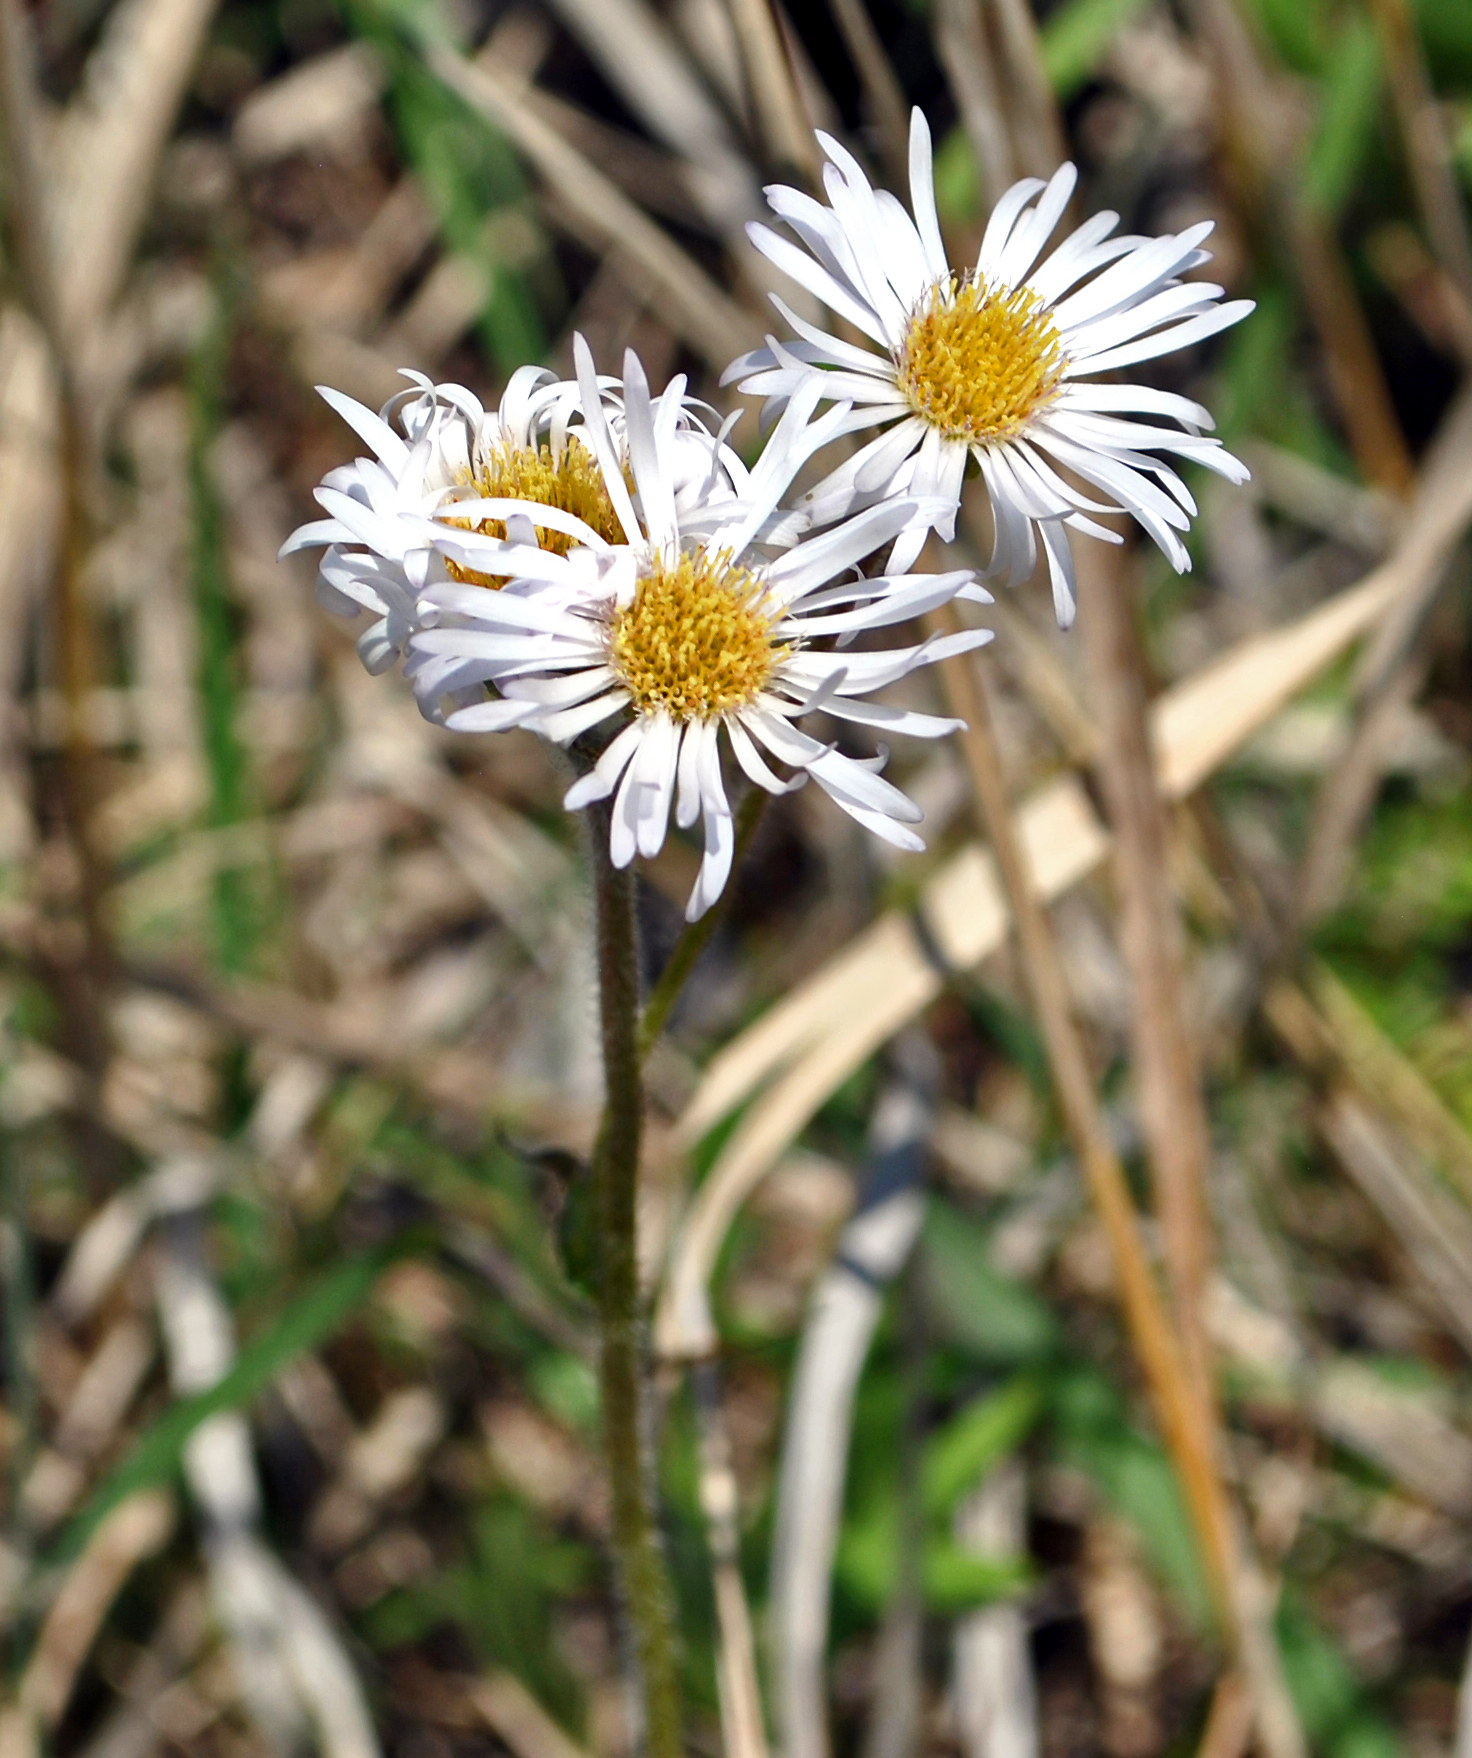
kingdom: Plantae
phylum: Tracheophyta
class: Magnoliopsida
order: Asterales
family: Asteraceae
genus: Erigeron
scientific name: Erigeron pulchellus
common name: Hairy fleabane
